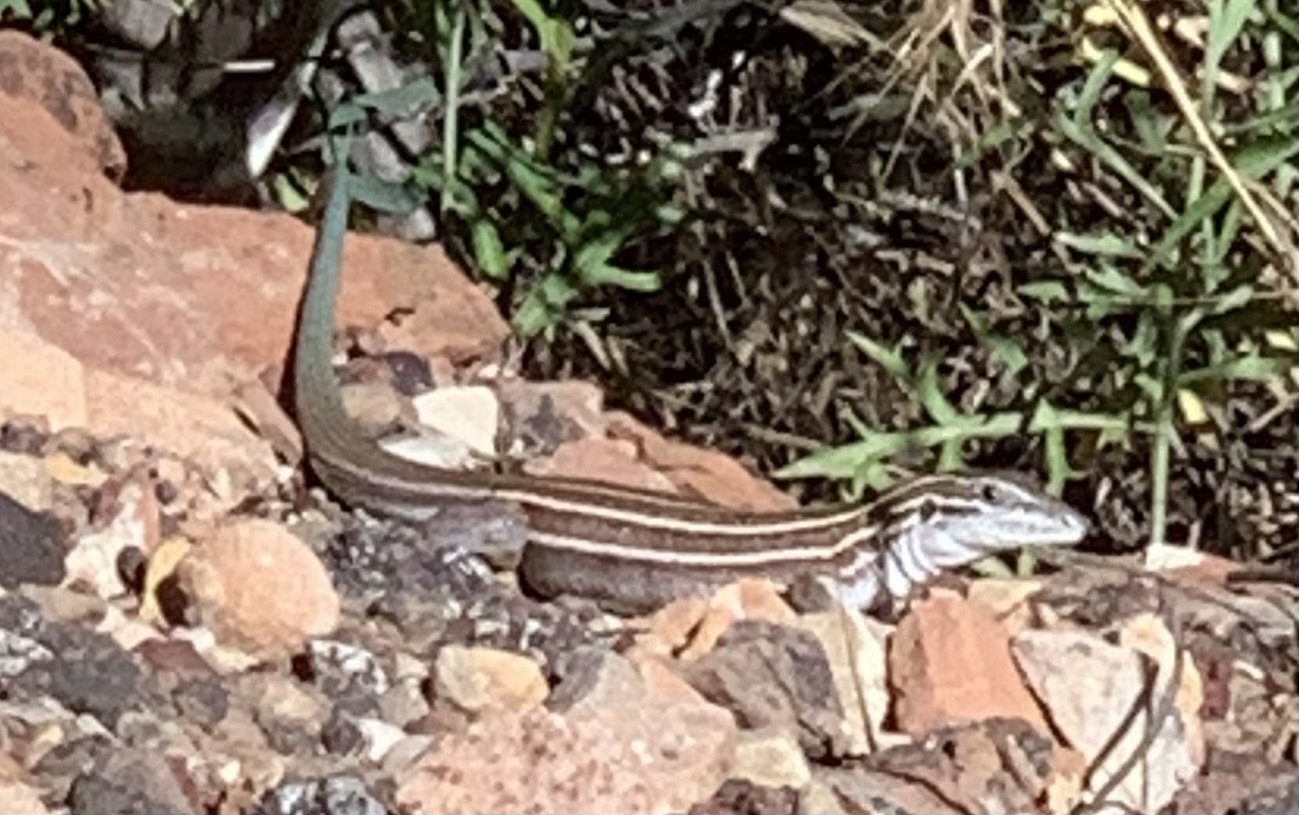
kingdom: Animalia
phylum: Chordata
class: Squamata
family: Teiidae
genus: Aspidoscelis
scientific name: Aspidoscelis velox
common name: Plateau striped whiptail
